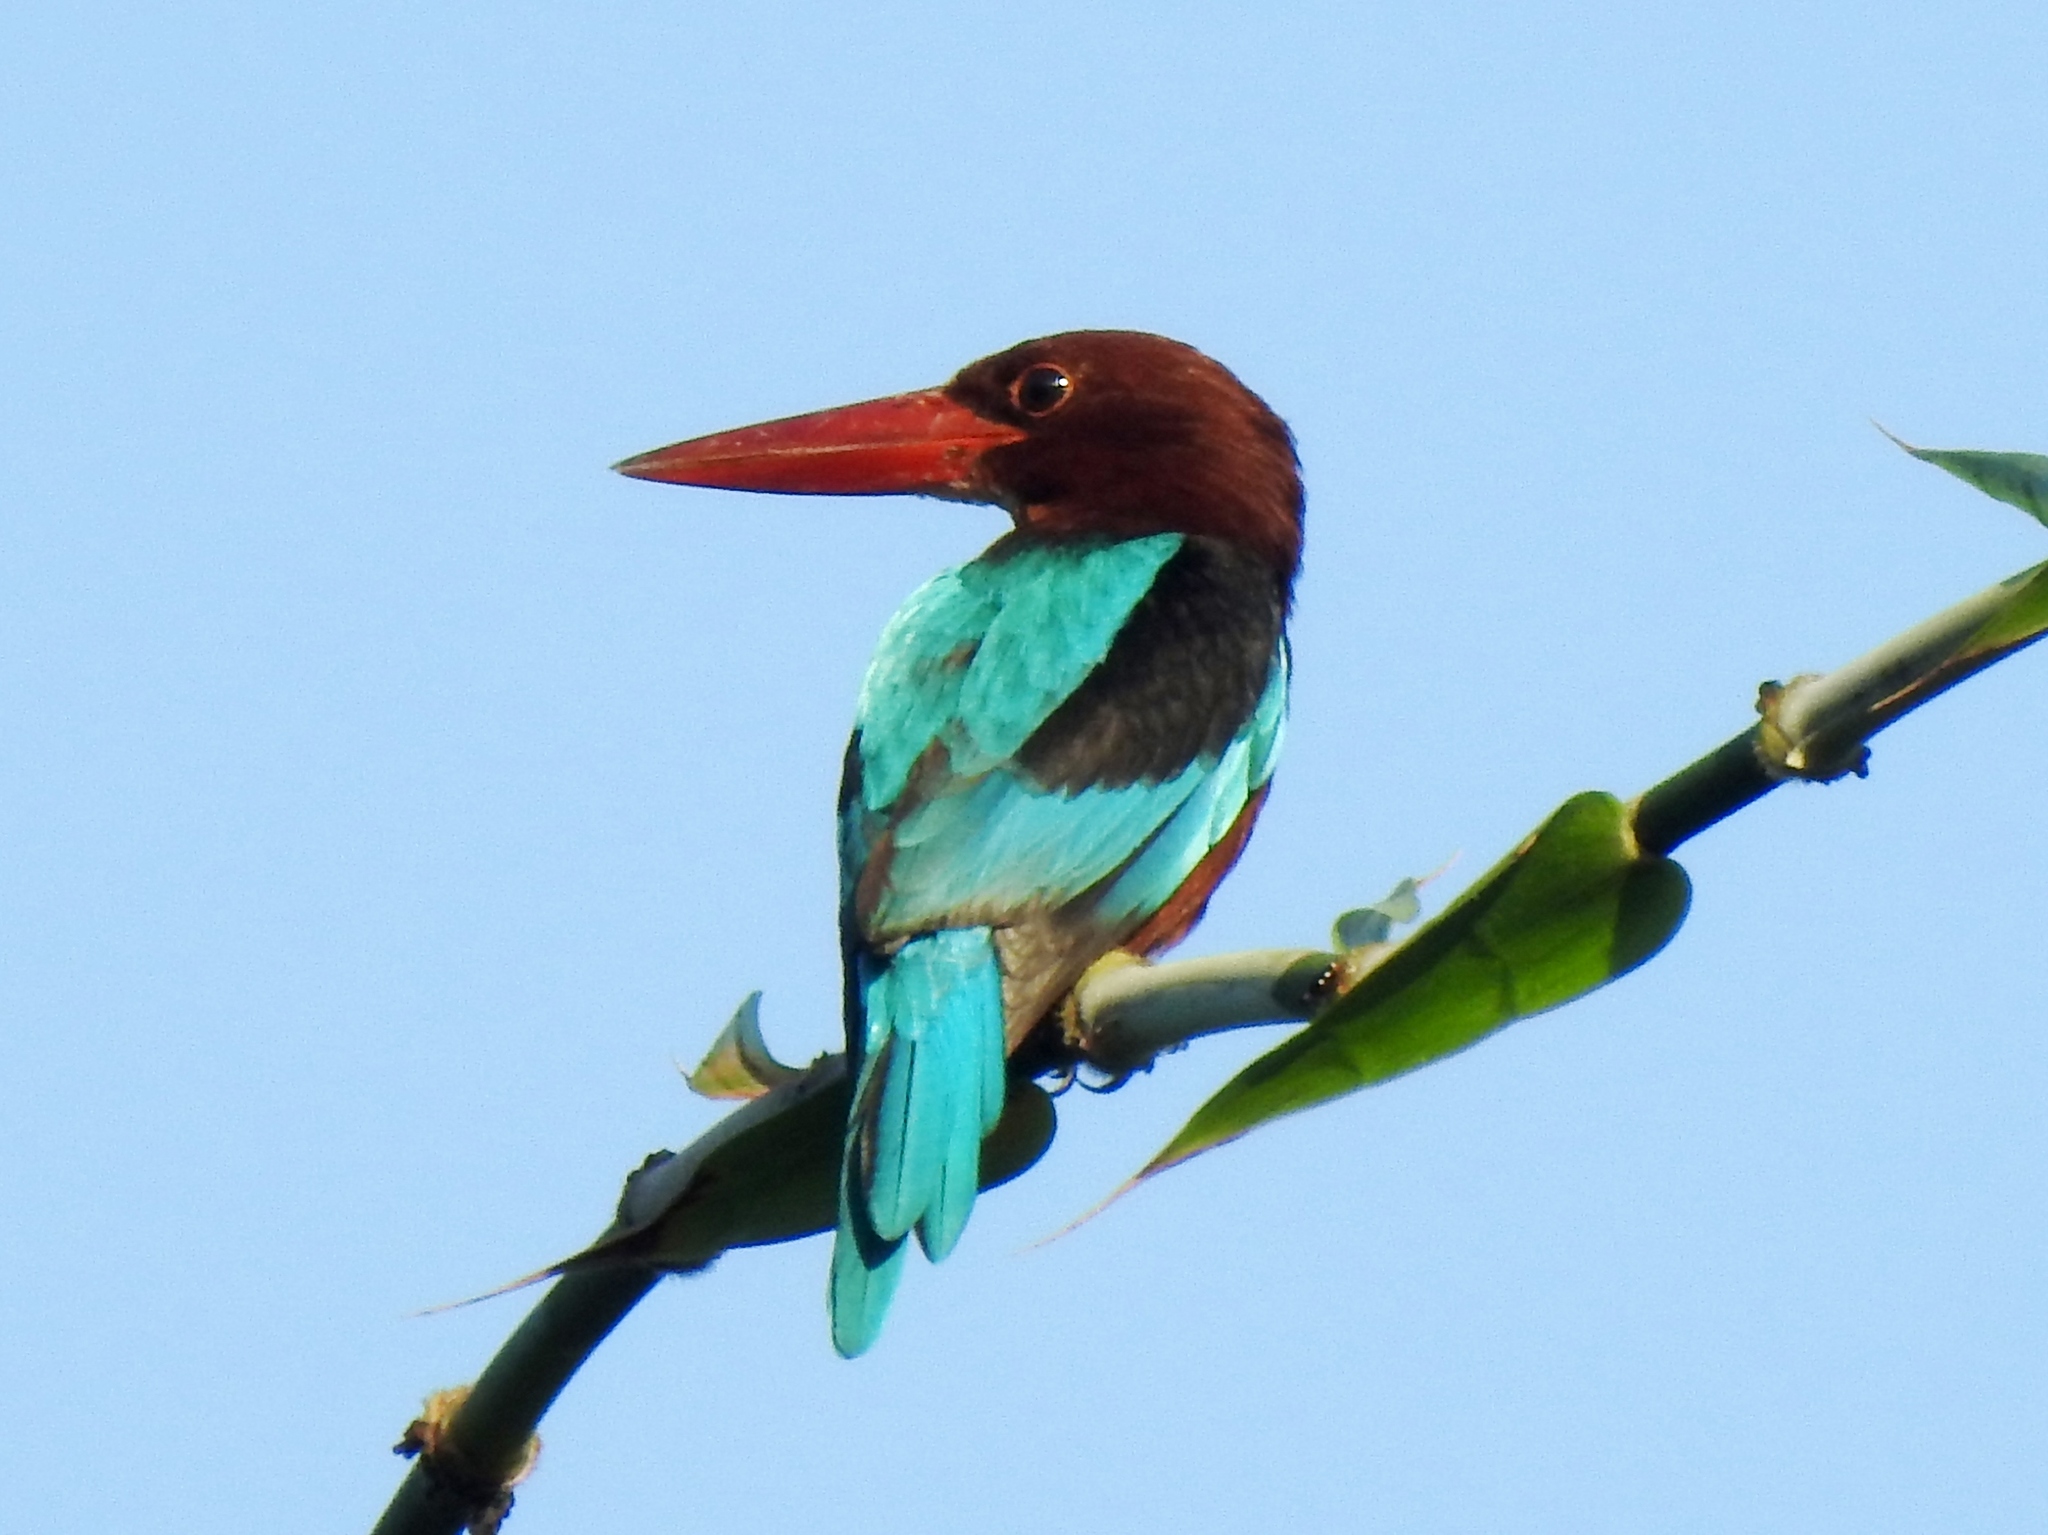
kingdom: Animalia
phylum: Chordata
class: Aves
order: Coraciiformes
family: Alcedinidae
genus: Halcyon
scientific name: Halcyon gularis
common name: Brown-breasted kingfisher
